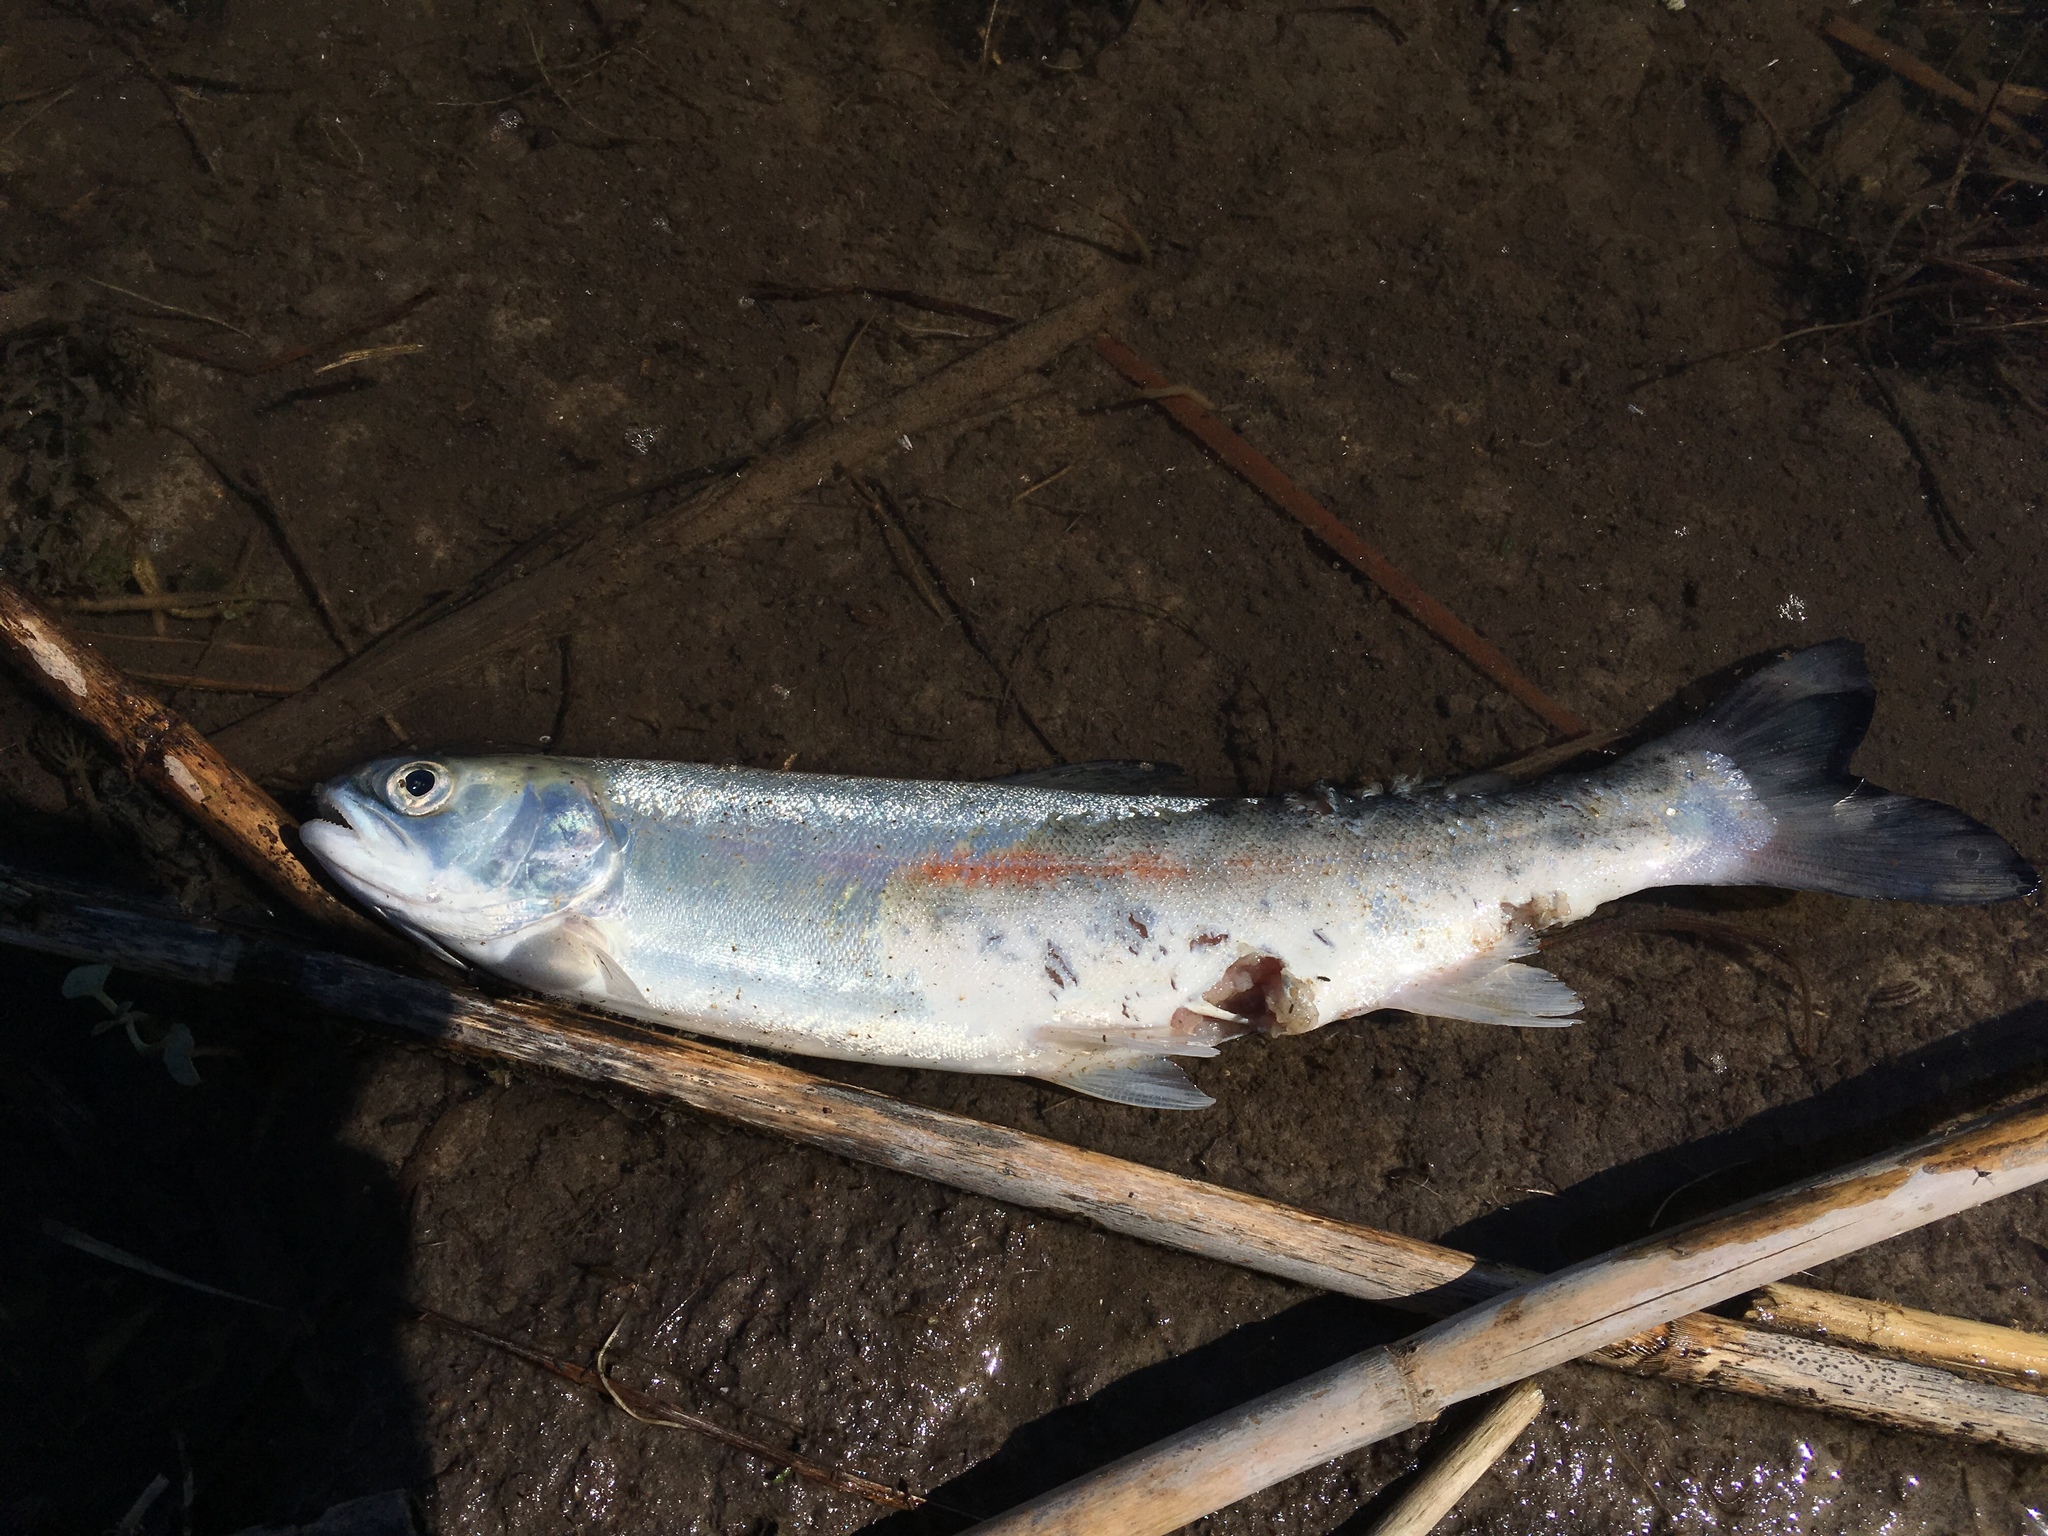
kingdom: Animalia
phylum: Chordata
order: Salmoniformes
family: Salmonidae
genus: Oncorhynchus
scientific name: Oncorhynchus mykiss
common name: Rainbow trout
